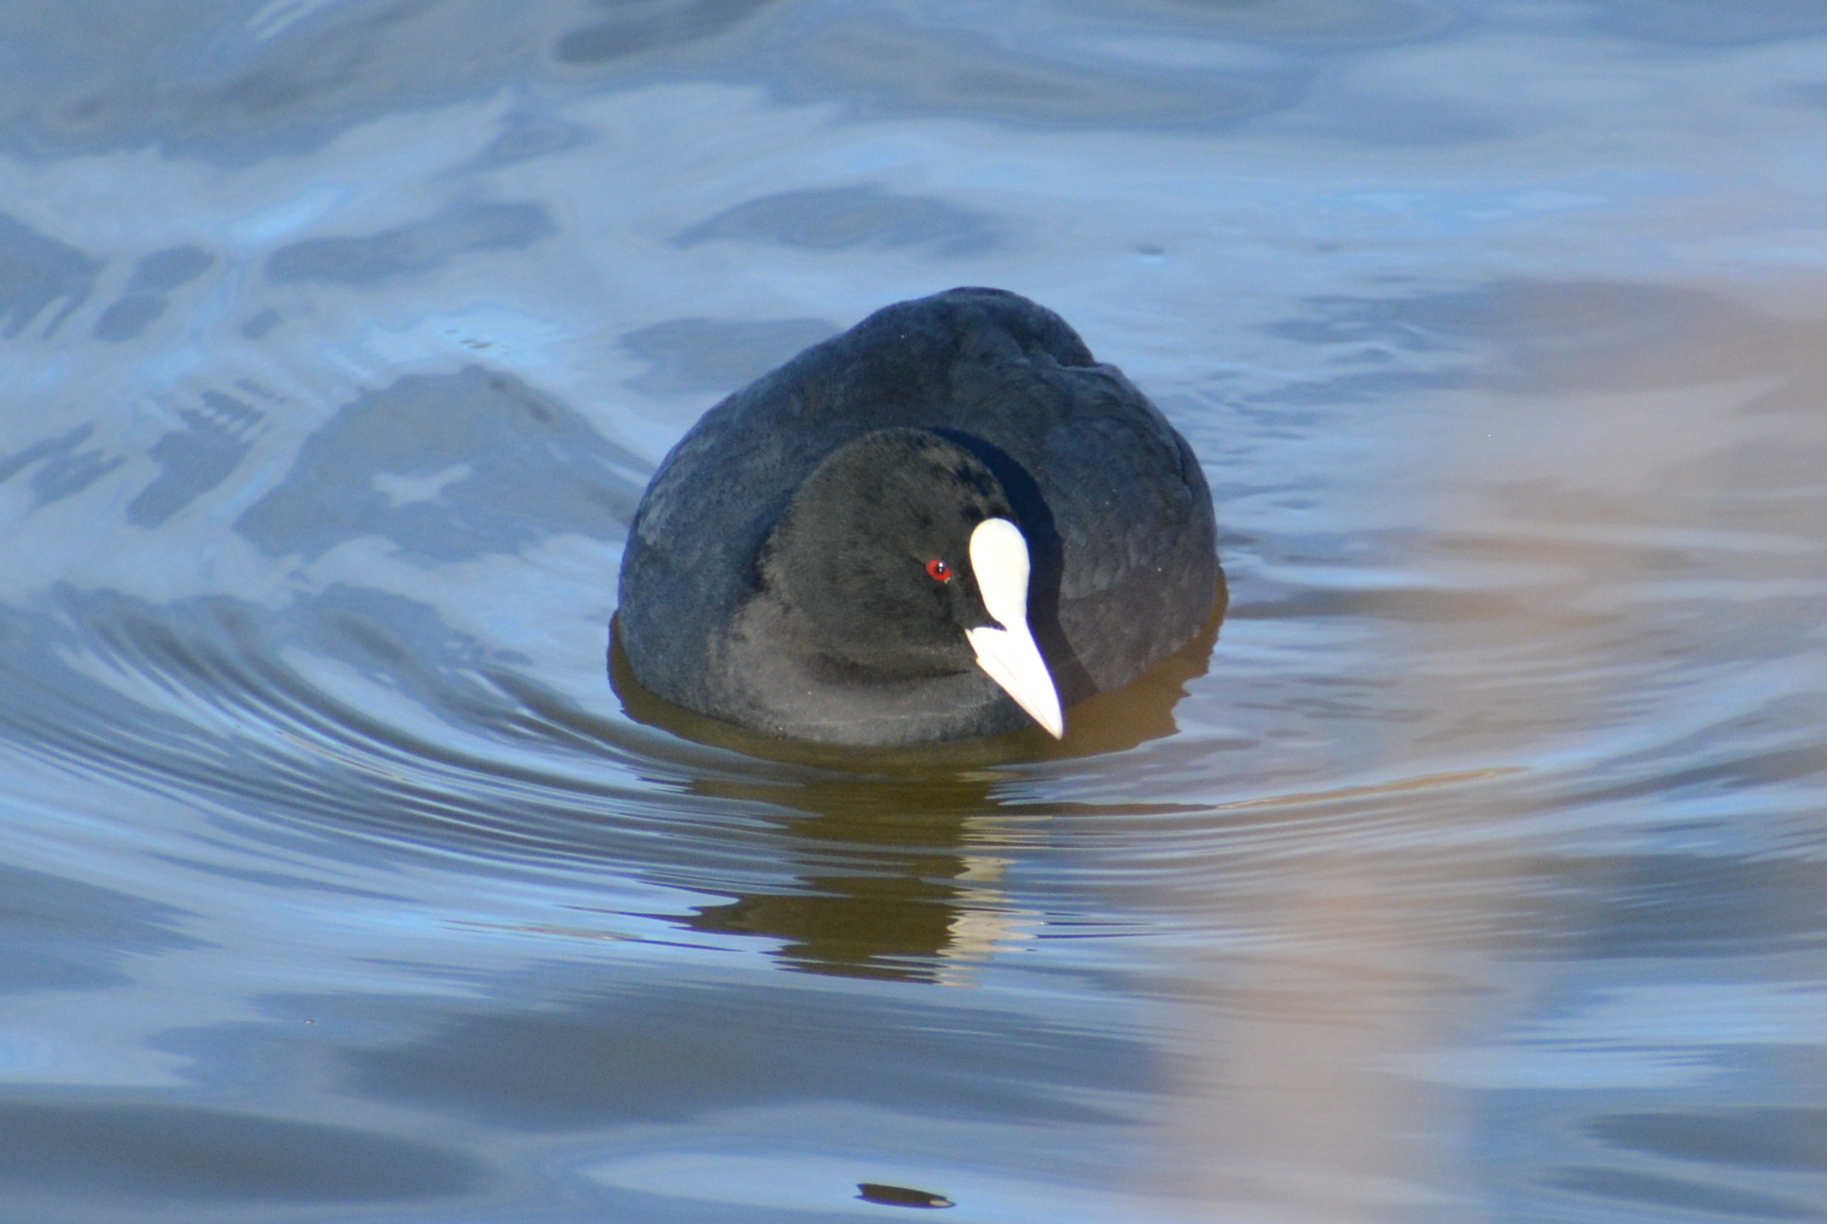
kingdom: Animalia
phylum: Chordata
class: Aves
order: Gruiformes
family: Rallidae
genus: Fulica
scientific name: Fulica atra
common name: Eurasian coot
